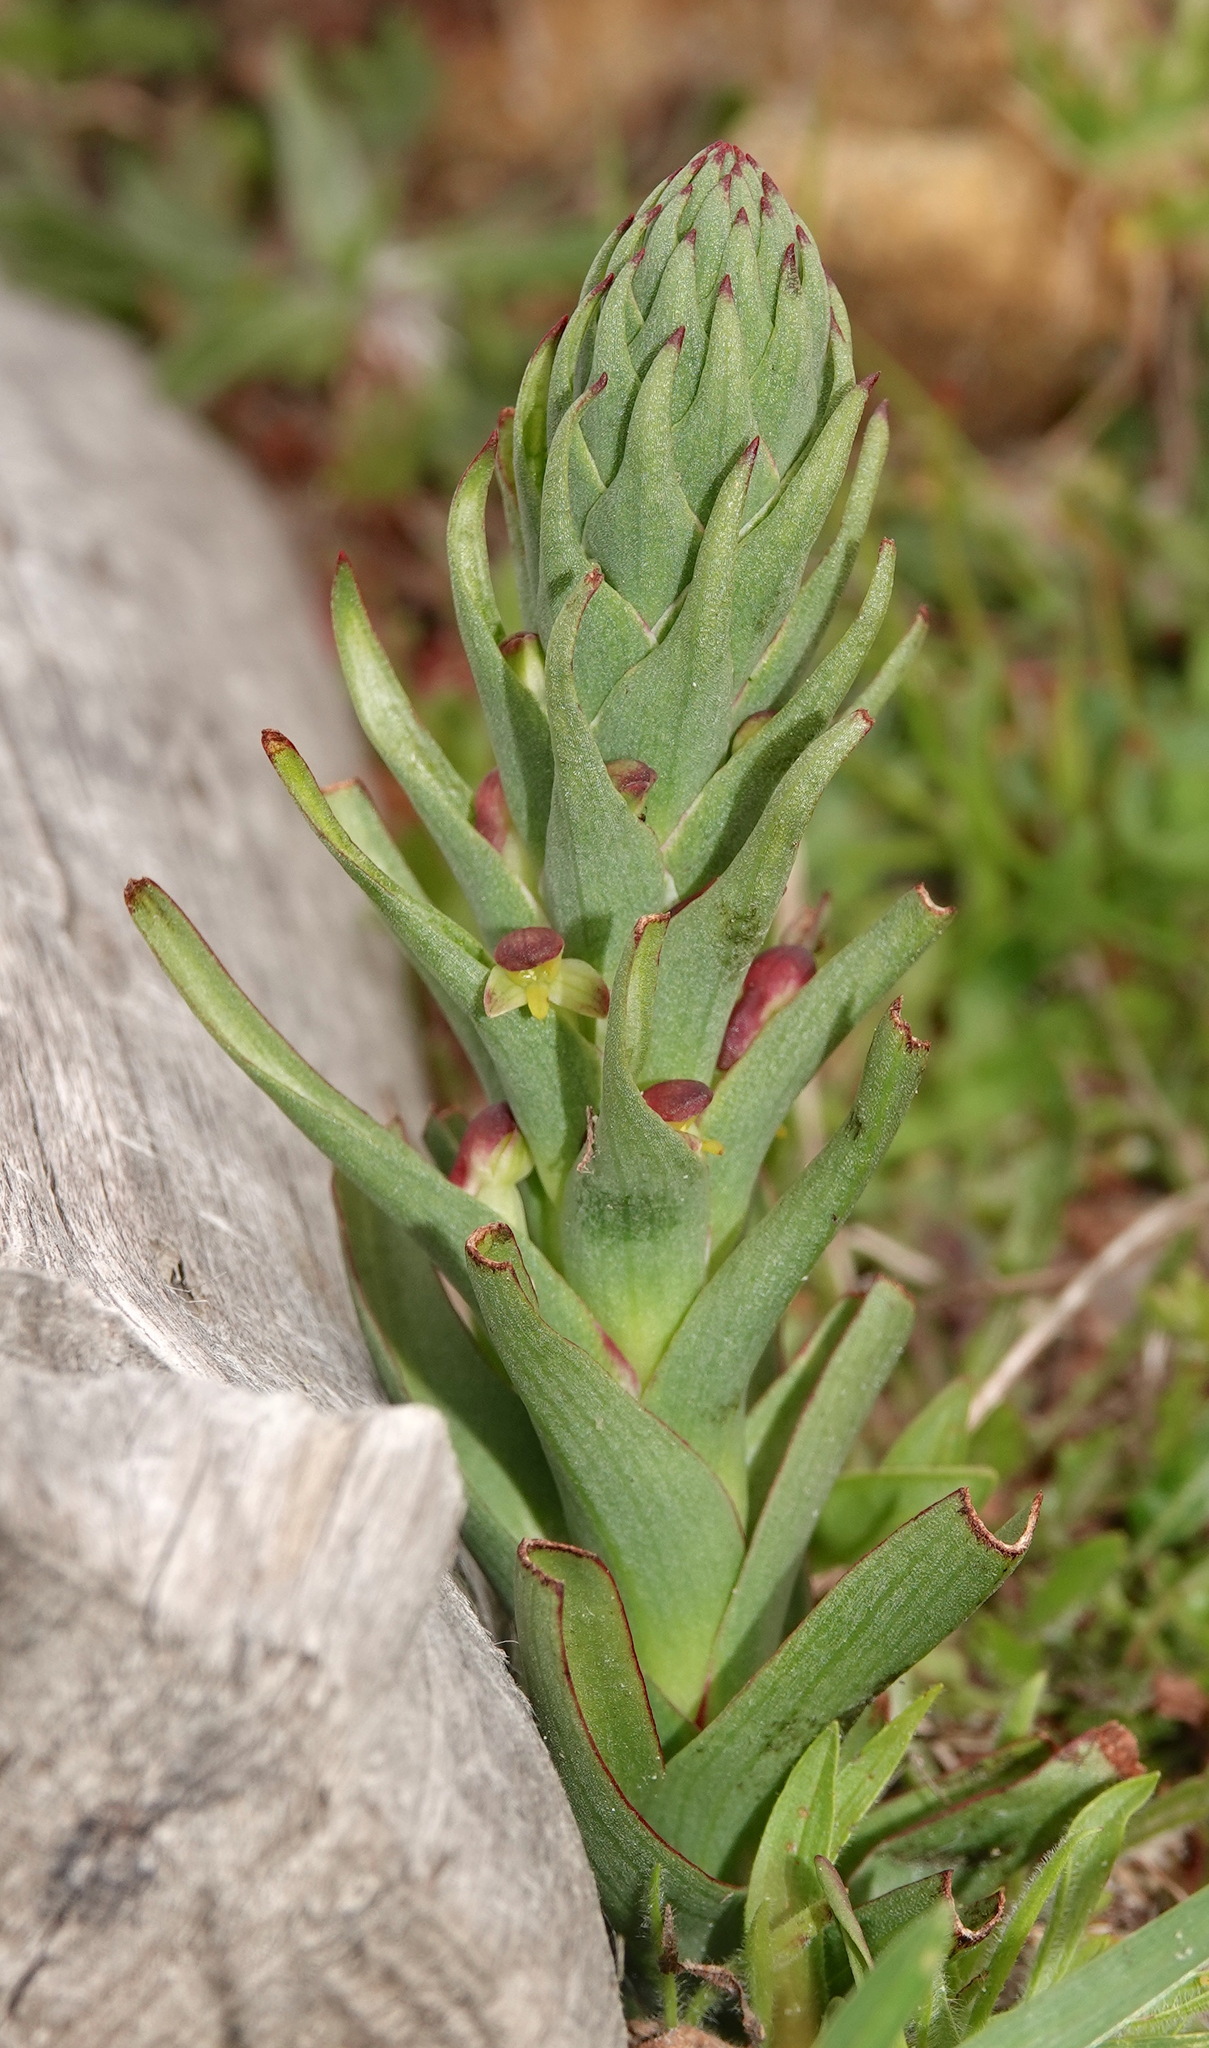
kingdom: Plantae
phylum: Tracheophyta
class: Liliopsida
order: Asparagales
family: Orchidaceae
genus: Disa
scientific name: Disa bracteata
